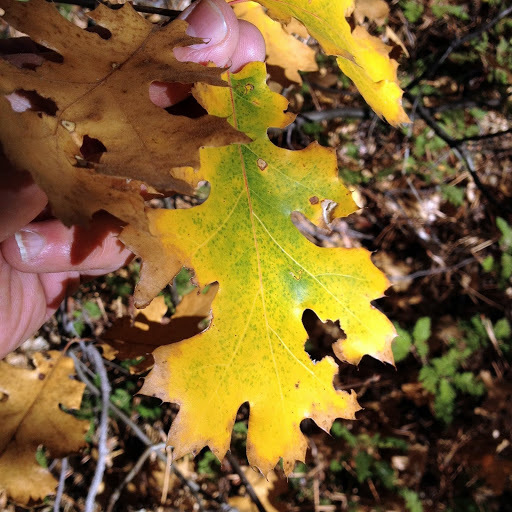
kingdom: Plantae
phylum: Tracheophyta
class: Magnoliopsida
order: Fagales
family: Fagaceae
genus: Quercus
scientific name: Quercus kelloggii
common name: California black oak
